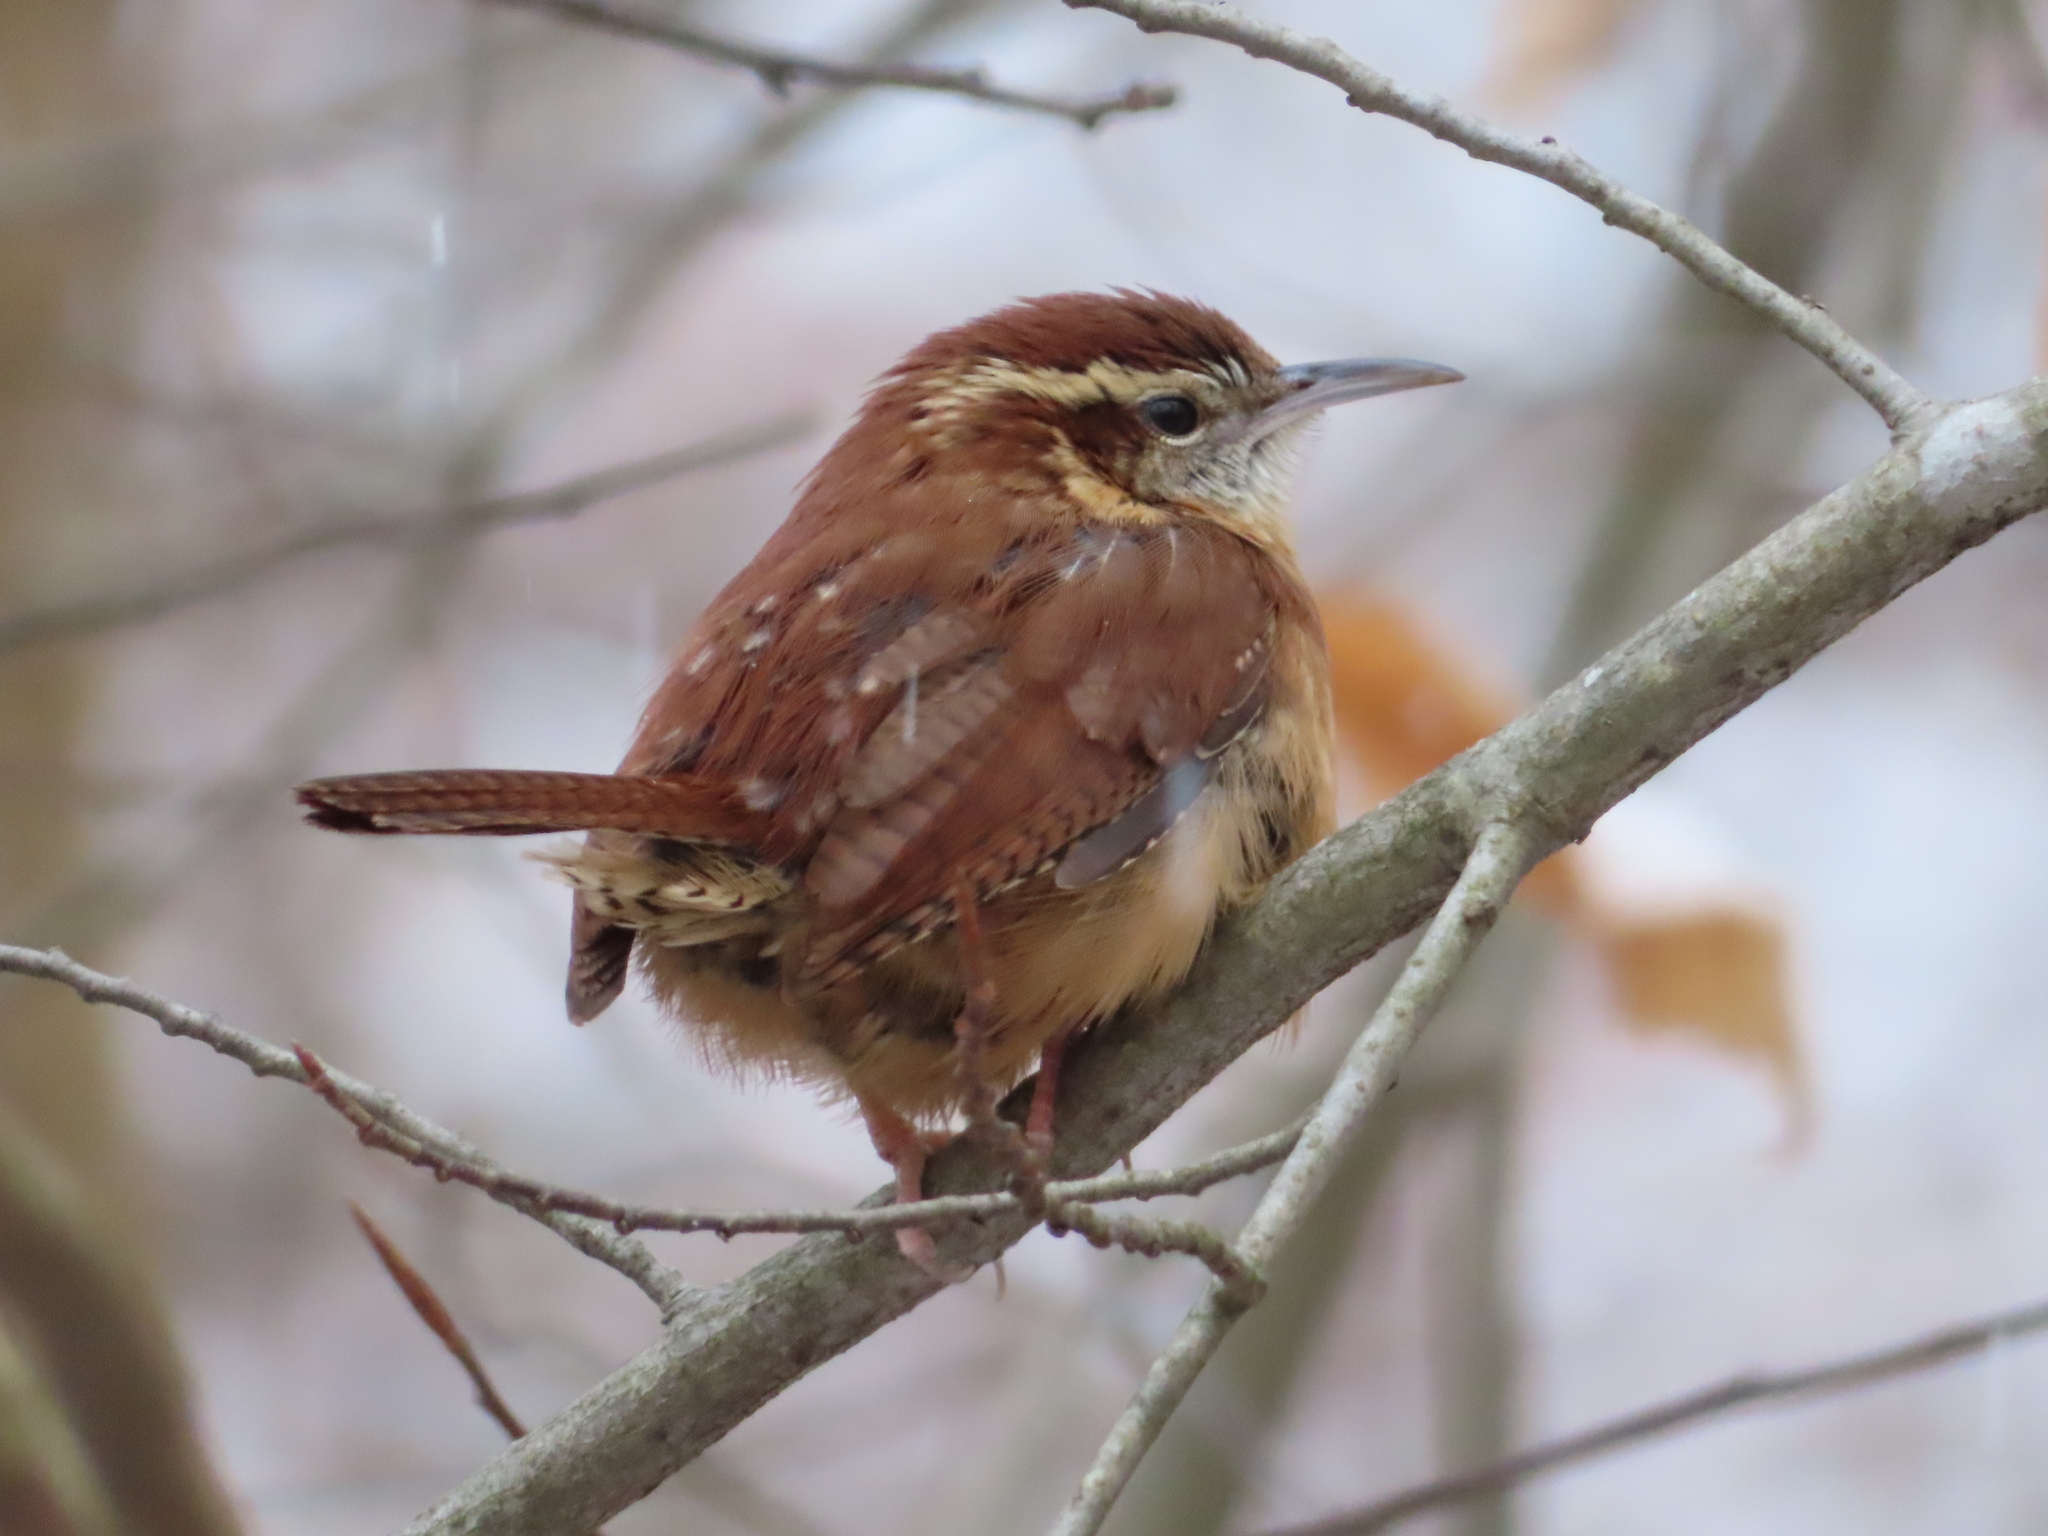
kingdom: Animalia
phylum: Chordata
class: Aves
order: Passeriformes
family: Troglodytidae
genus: Thryothorus
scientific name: Thryothorus ludovicianus
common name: Carolina wren
